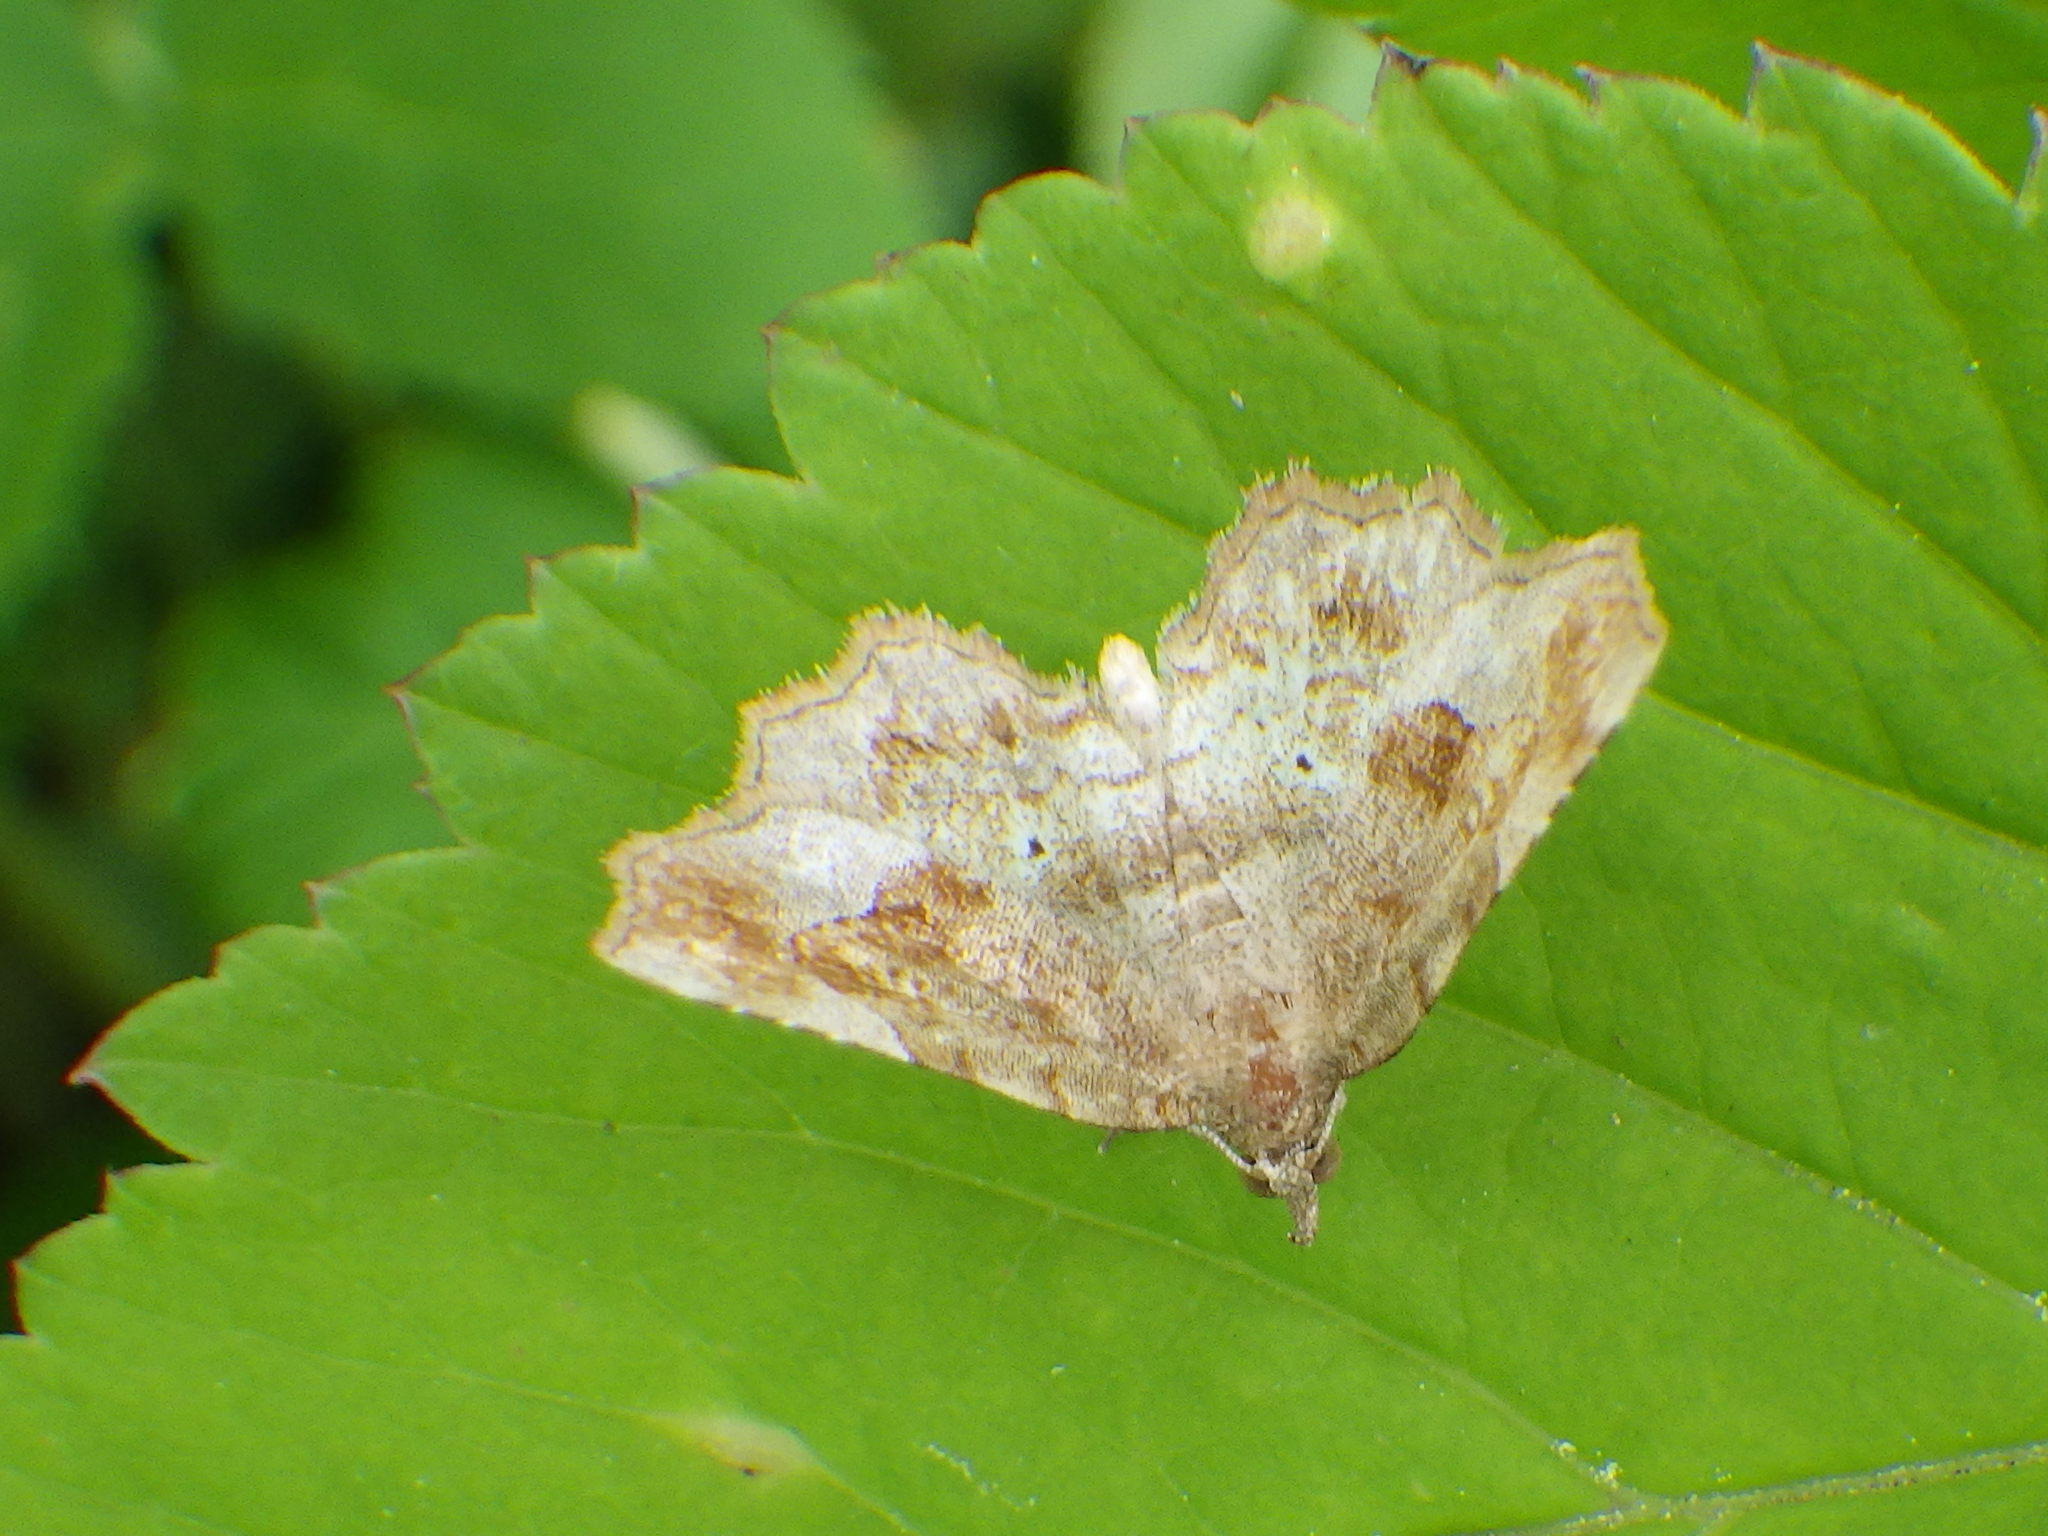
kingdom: Animalia
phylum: Arthropoda
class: Insecta
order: Lepidoptera
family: Erebidae
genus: Pangrapta
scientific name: Pangrapta decoralis
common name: Decorated owlet
